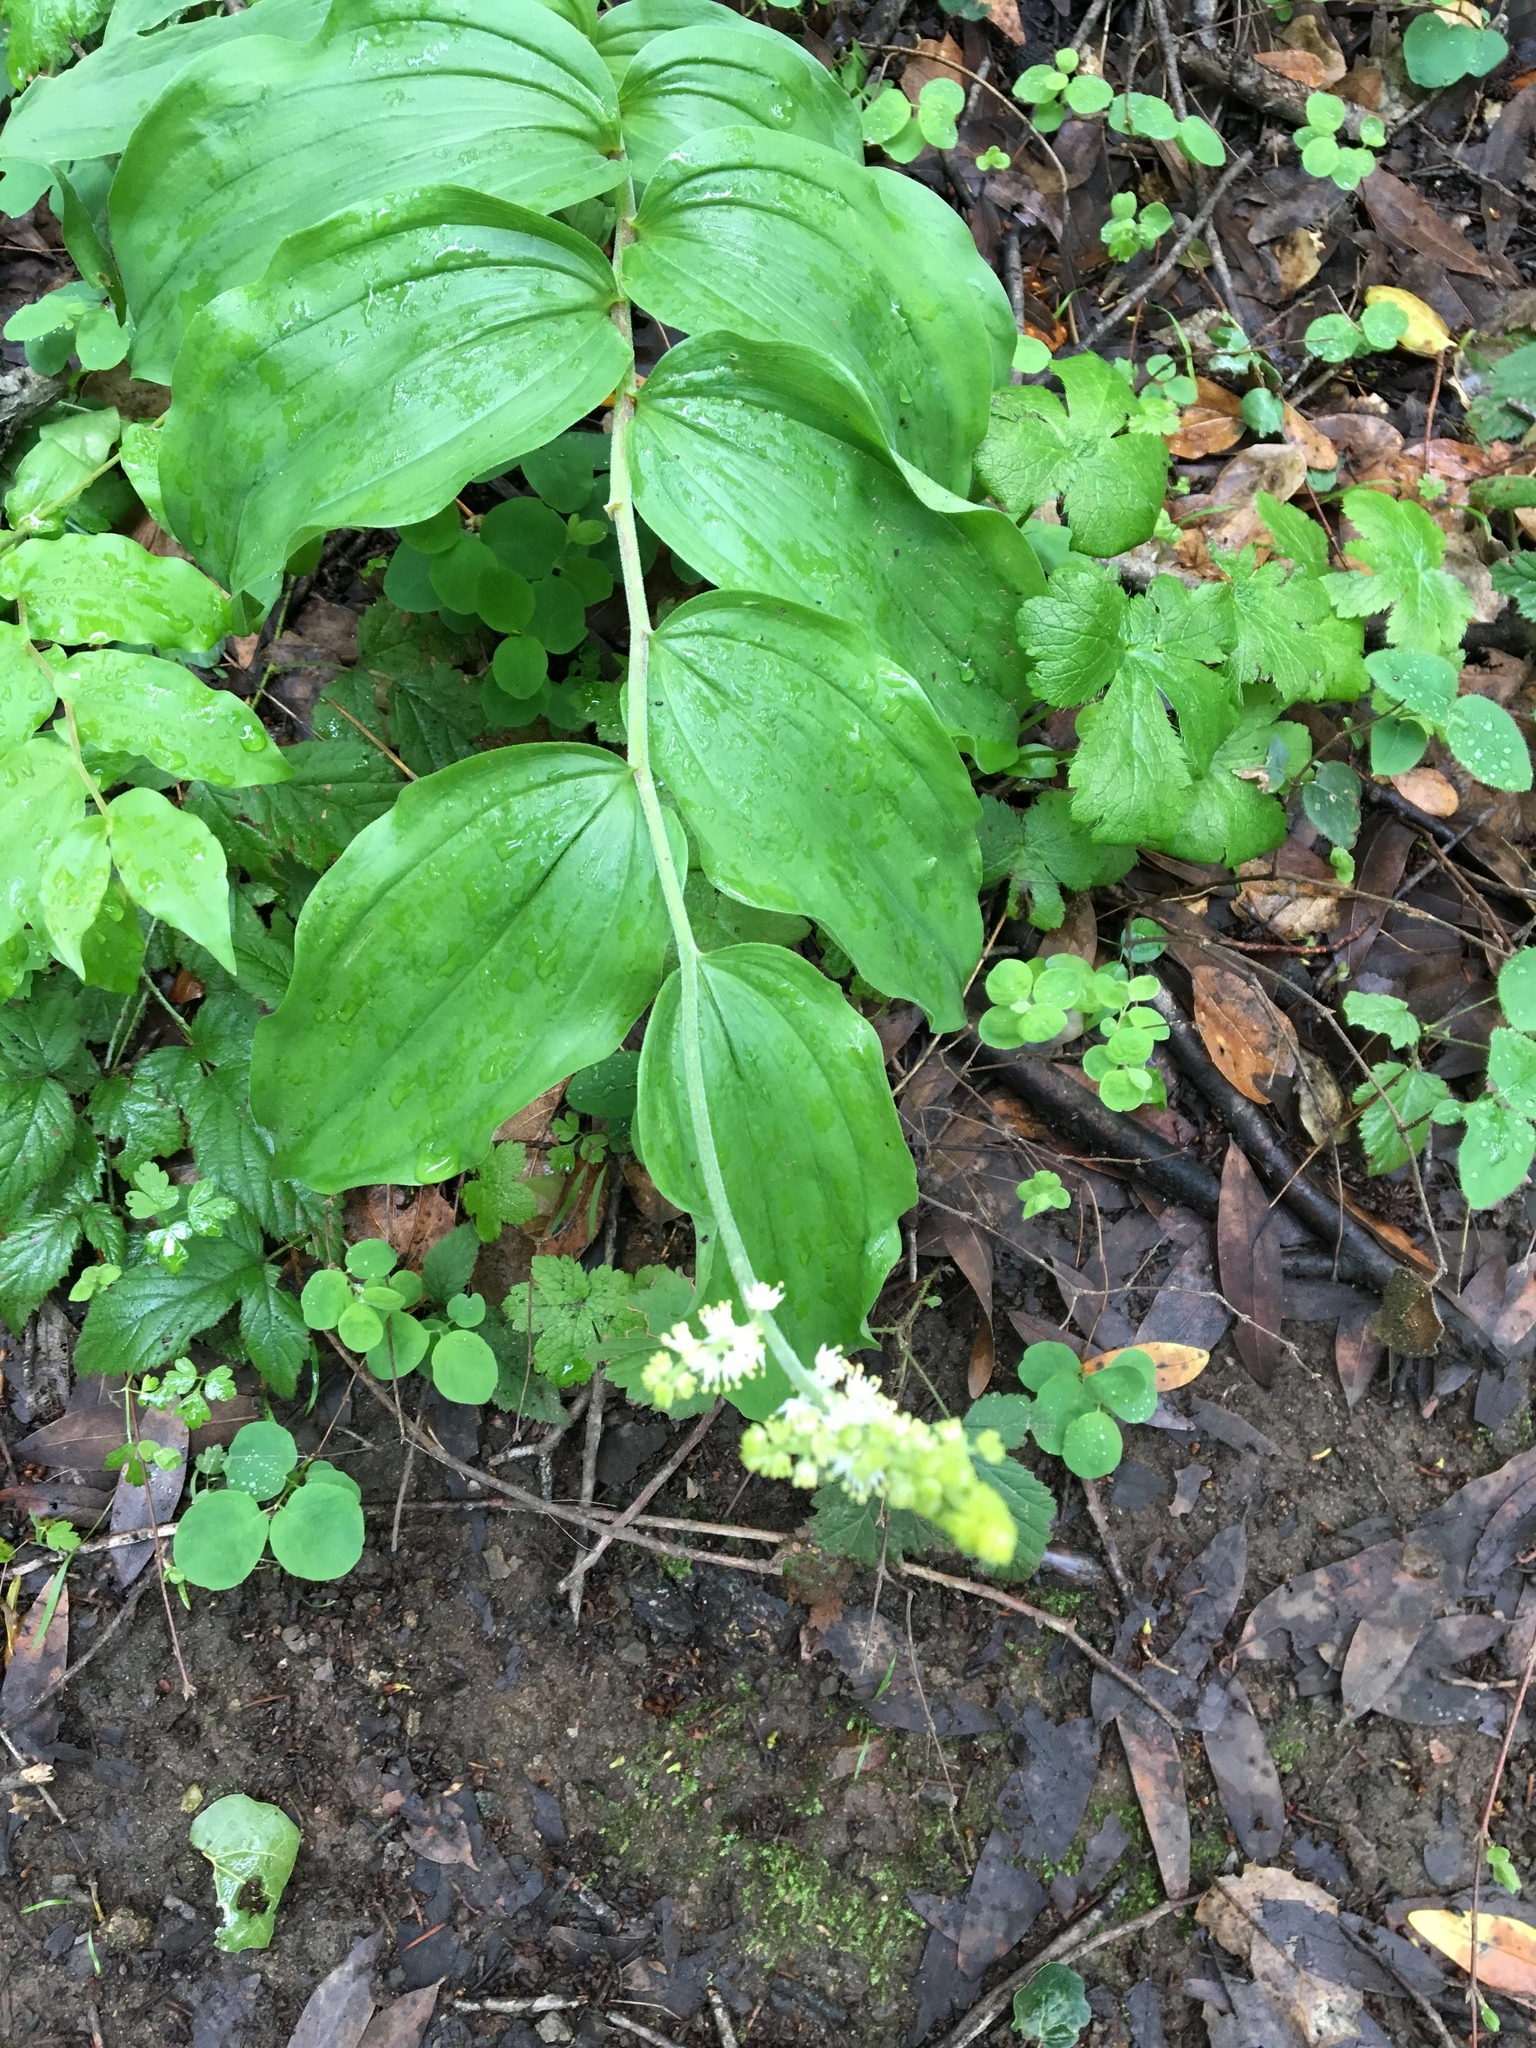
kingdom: Plantae
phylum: Tracheophyta
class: Liliopsida
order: Asparagales
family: Asparagaceae
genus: Maianthemum
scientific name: Maianthemum racemosum
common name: False spikenard
